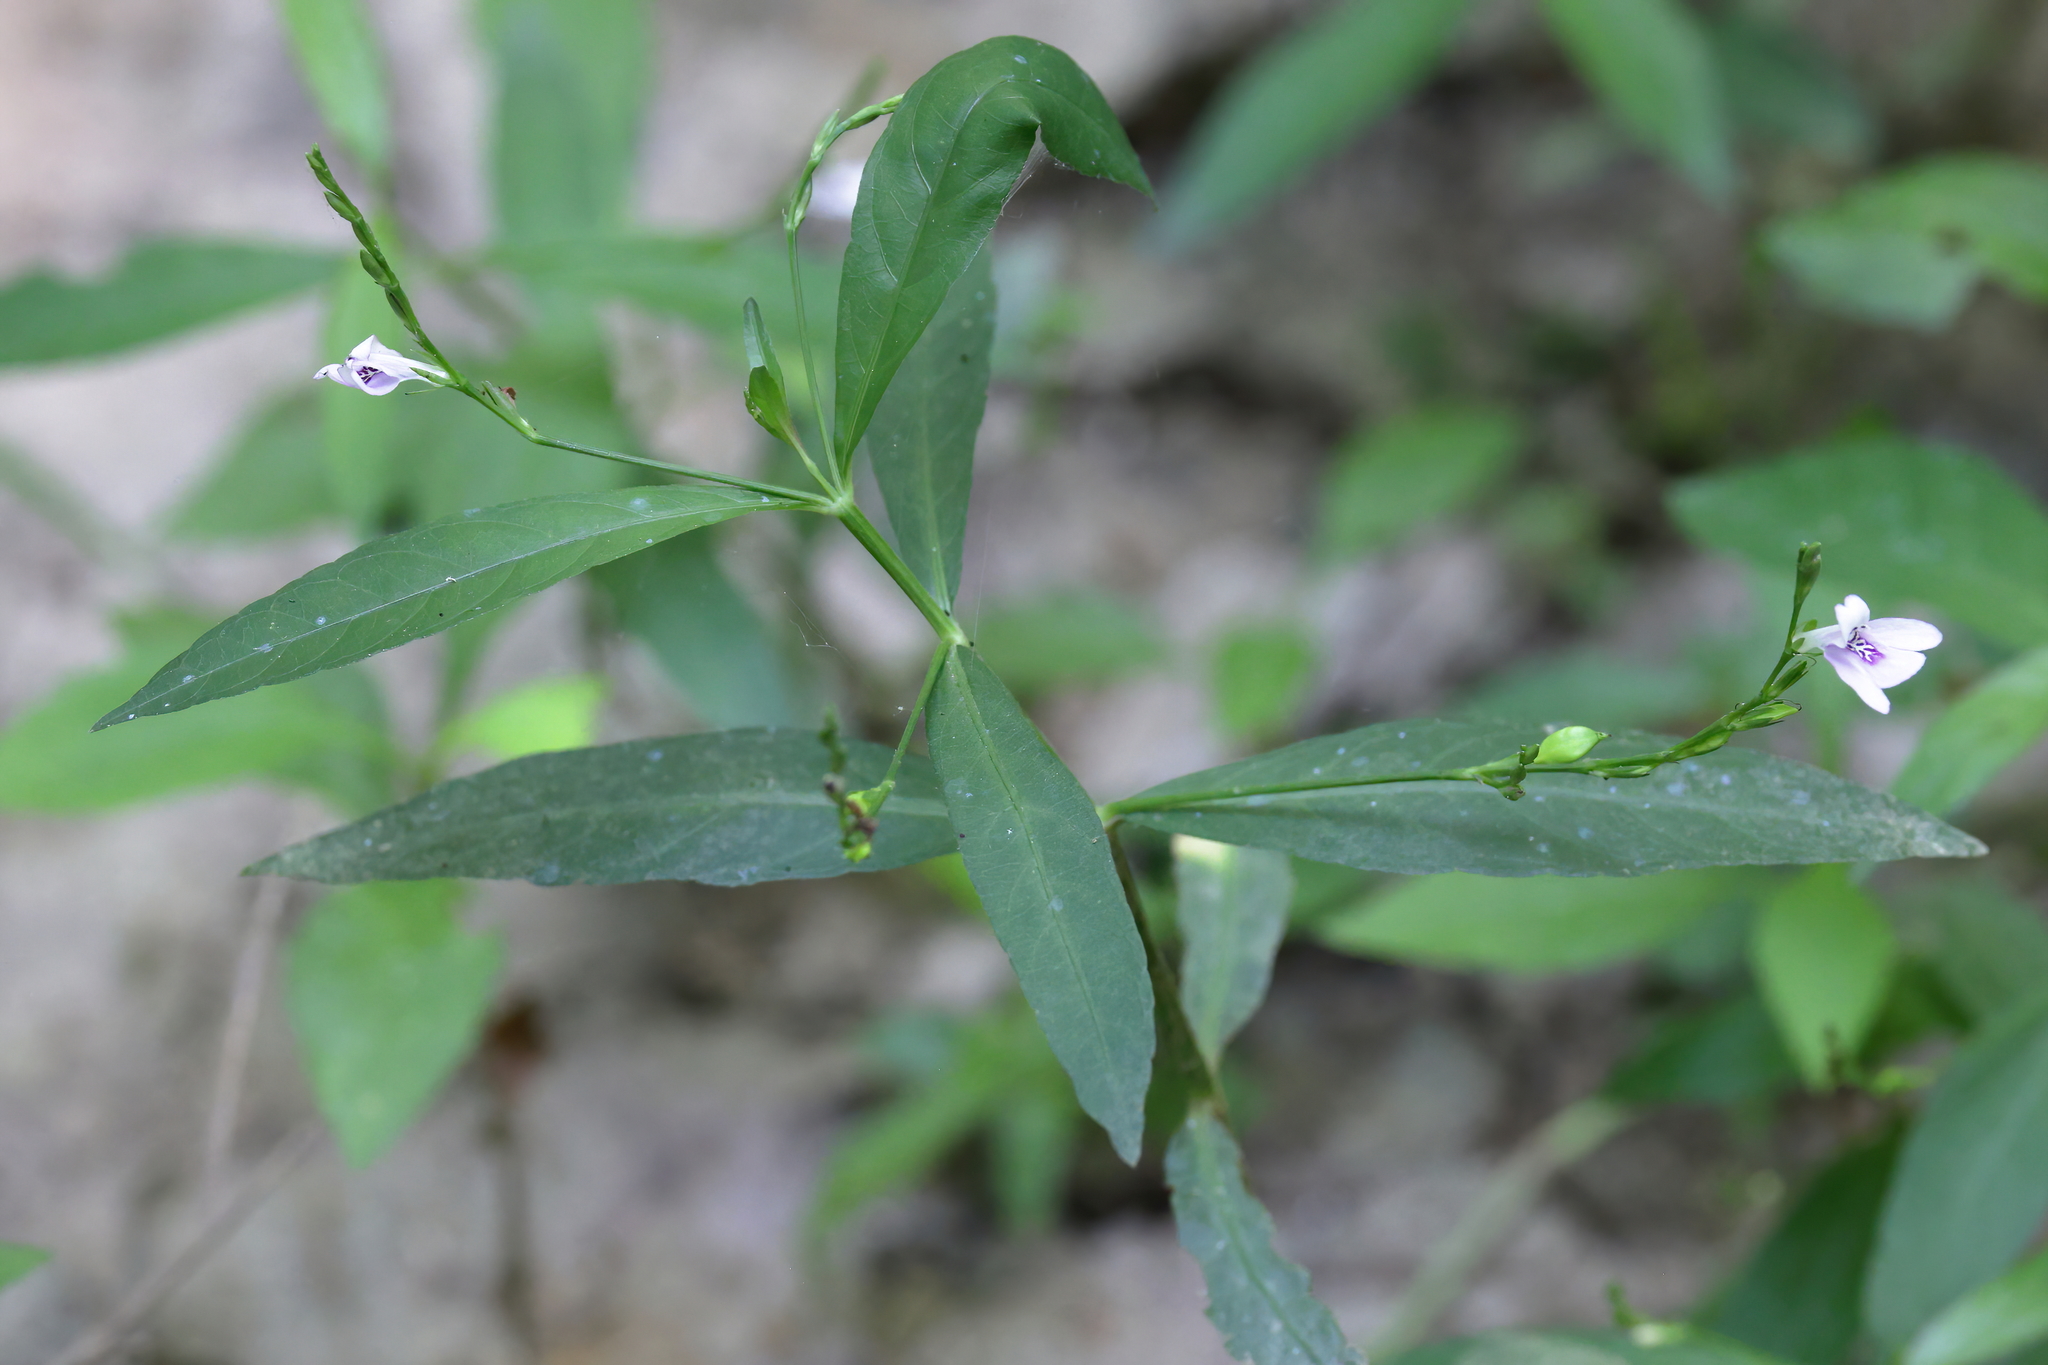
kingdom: Plantae
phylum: Tracheophyta
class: Magnoliopsida
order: Lamiales
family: Acanthaceae
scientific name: Acanthaceae
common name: Acanthaceae
